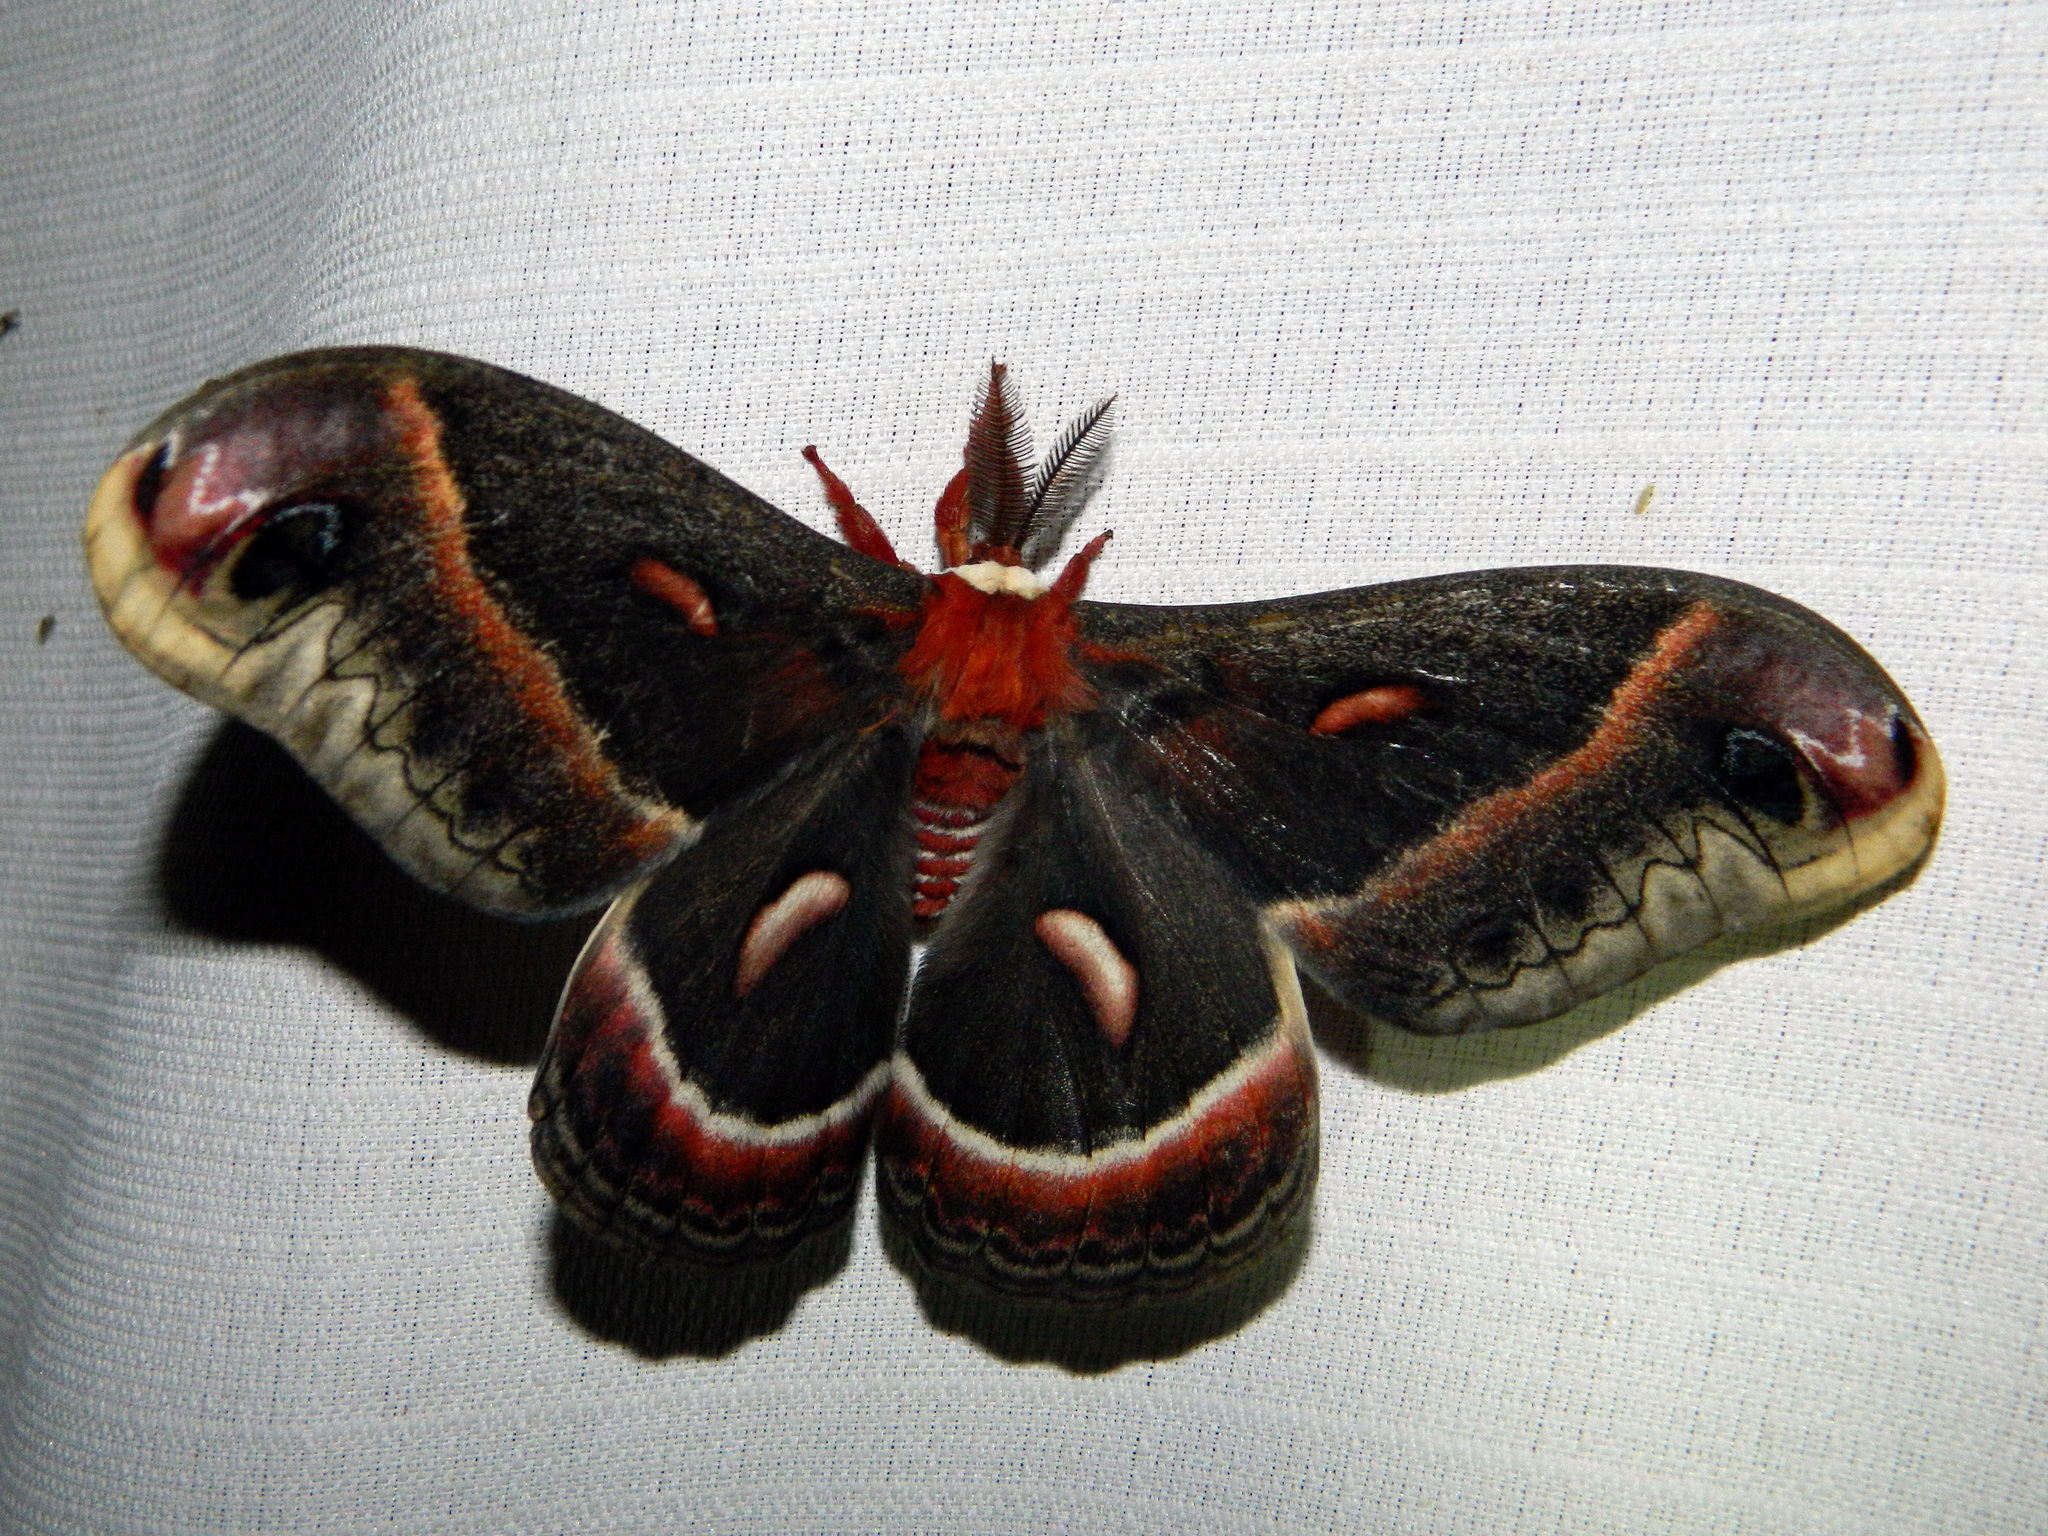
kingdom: Animalia
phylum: Arthropoda
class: Insecta
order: Lepidoptera
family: Saturniidae
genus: Hyalophora
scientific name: Hyalophora cecropia
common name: Cecropia silkmoth
